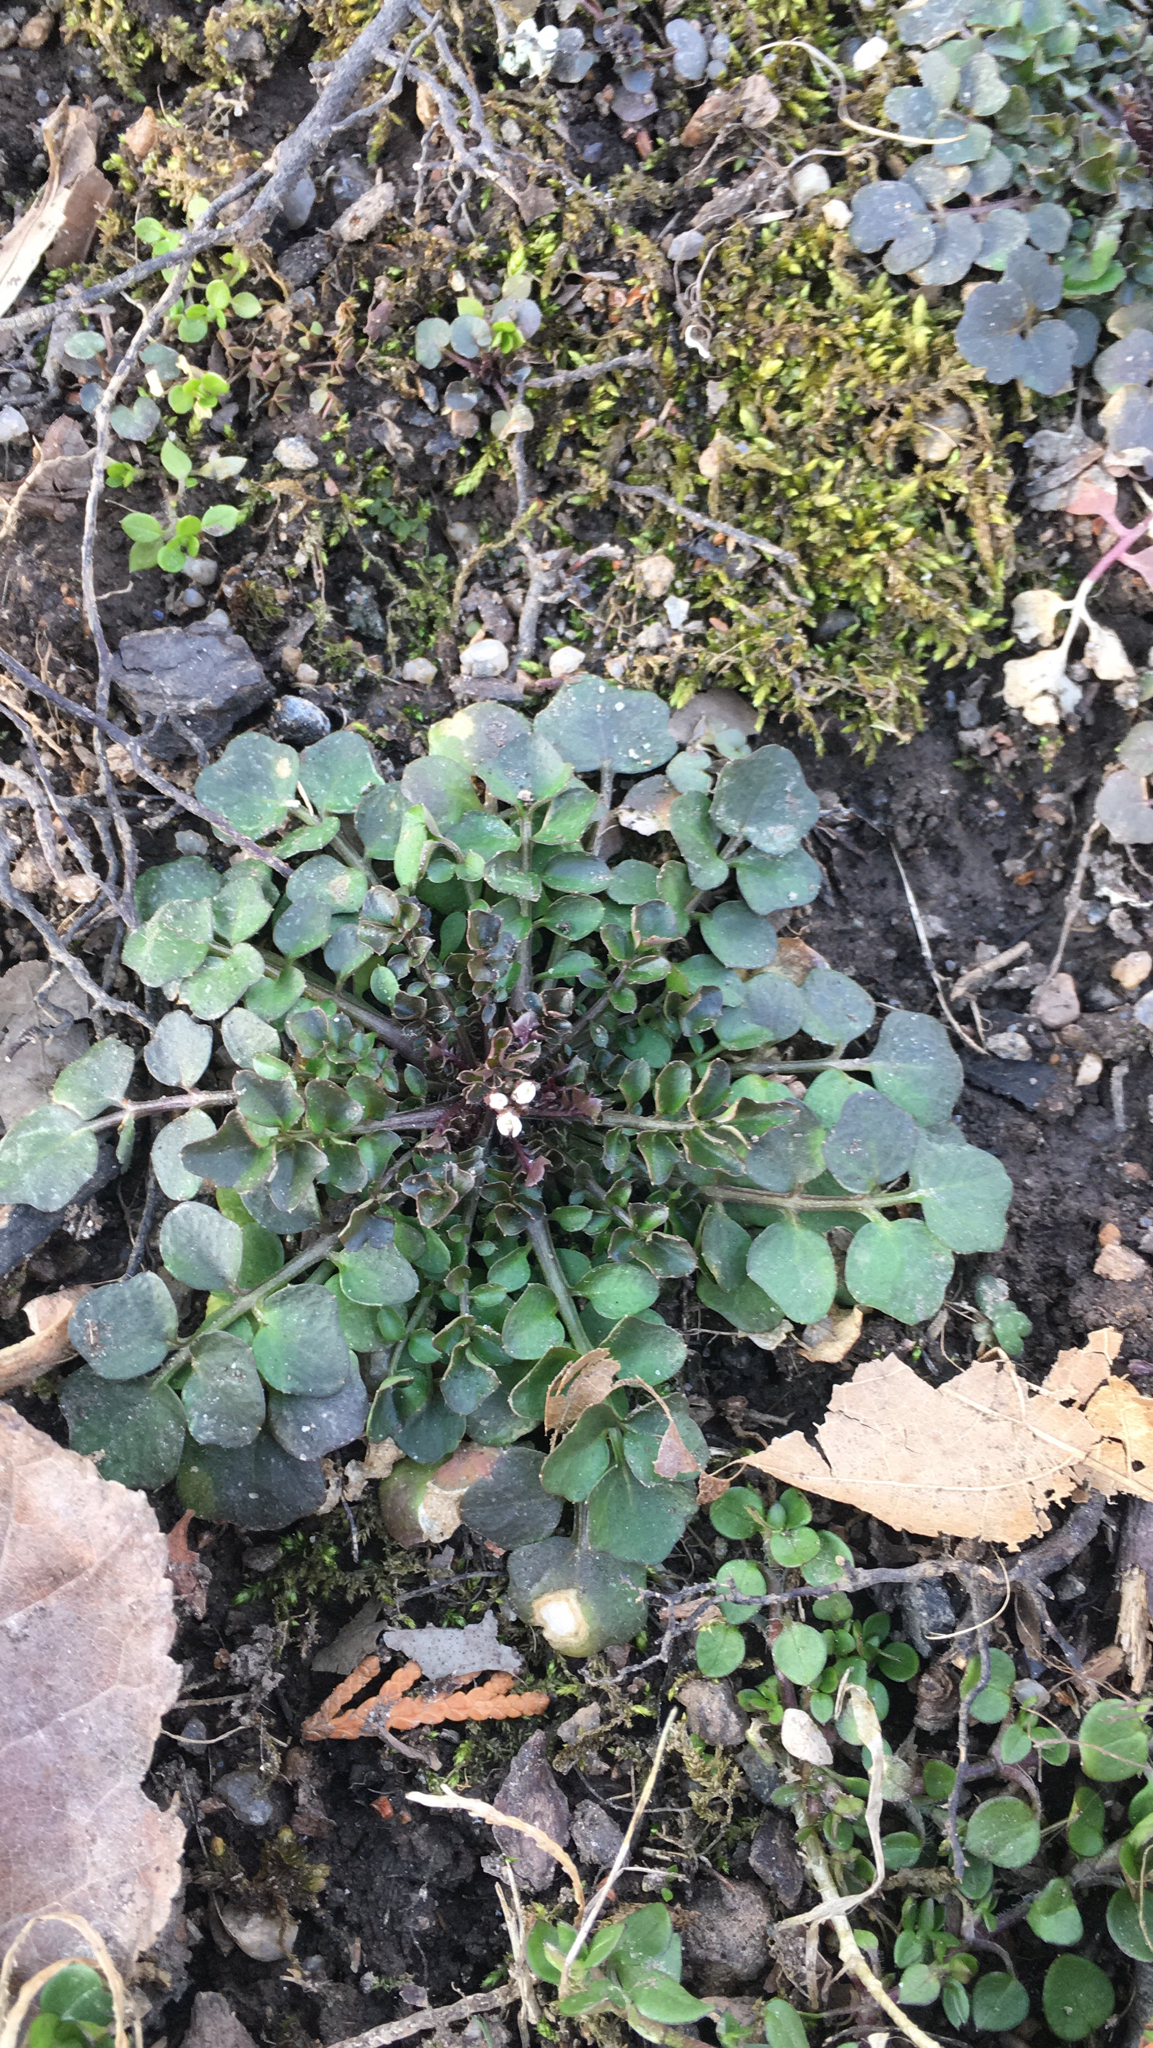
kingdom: Plantae
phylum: Tracheophyta
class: Magnoliopsida
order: Brassicales
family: Brassicaceae
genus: Cardamine
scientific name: Cardamine hirsuta
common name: Hairy bittercress
